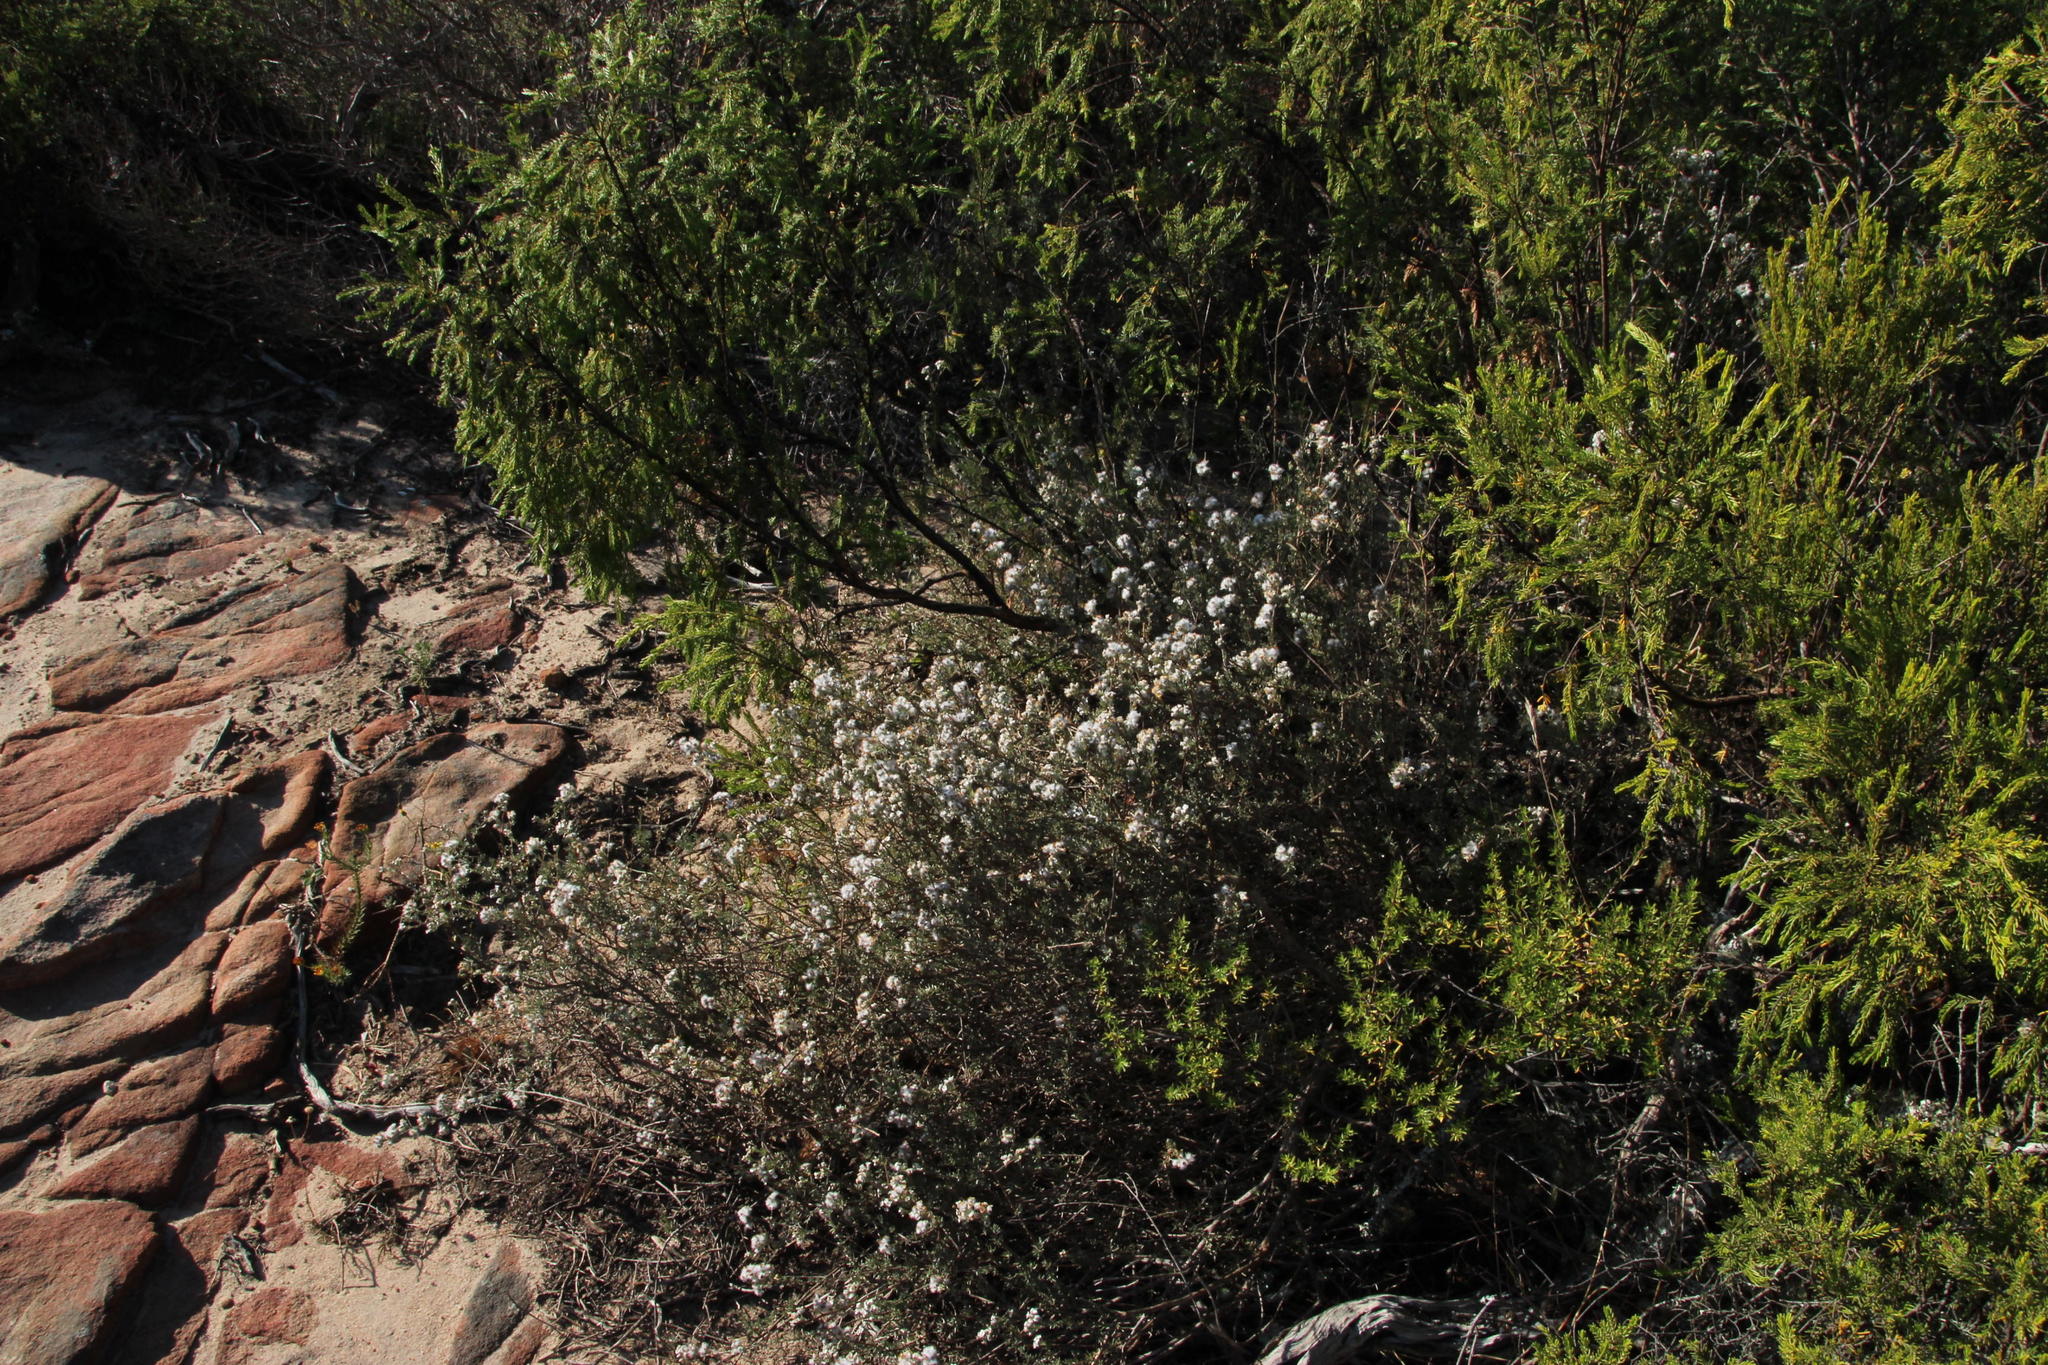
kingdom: Plantae
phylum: Tracheophyta
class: Magnoliopsida
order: Asterales
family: Asteraceae
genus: Eriocephalus
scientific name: Eriocephalus africanus
